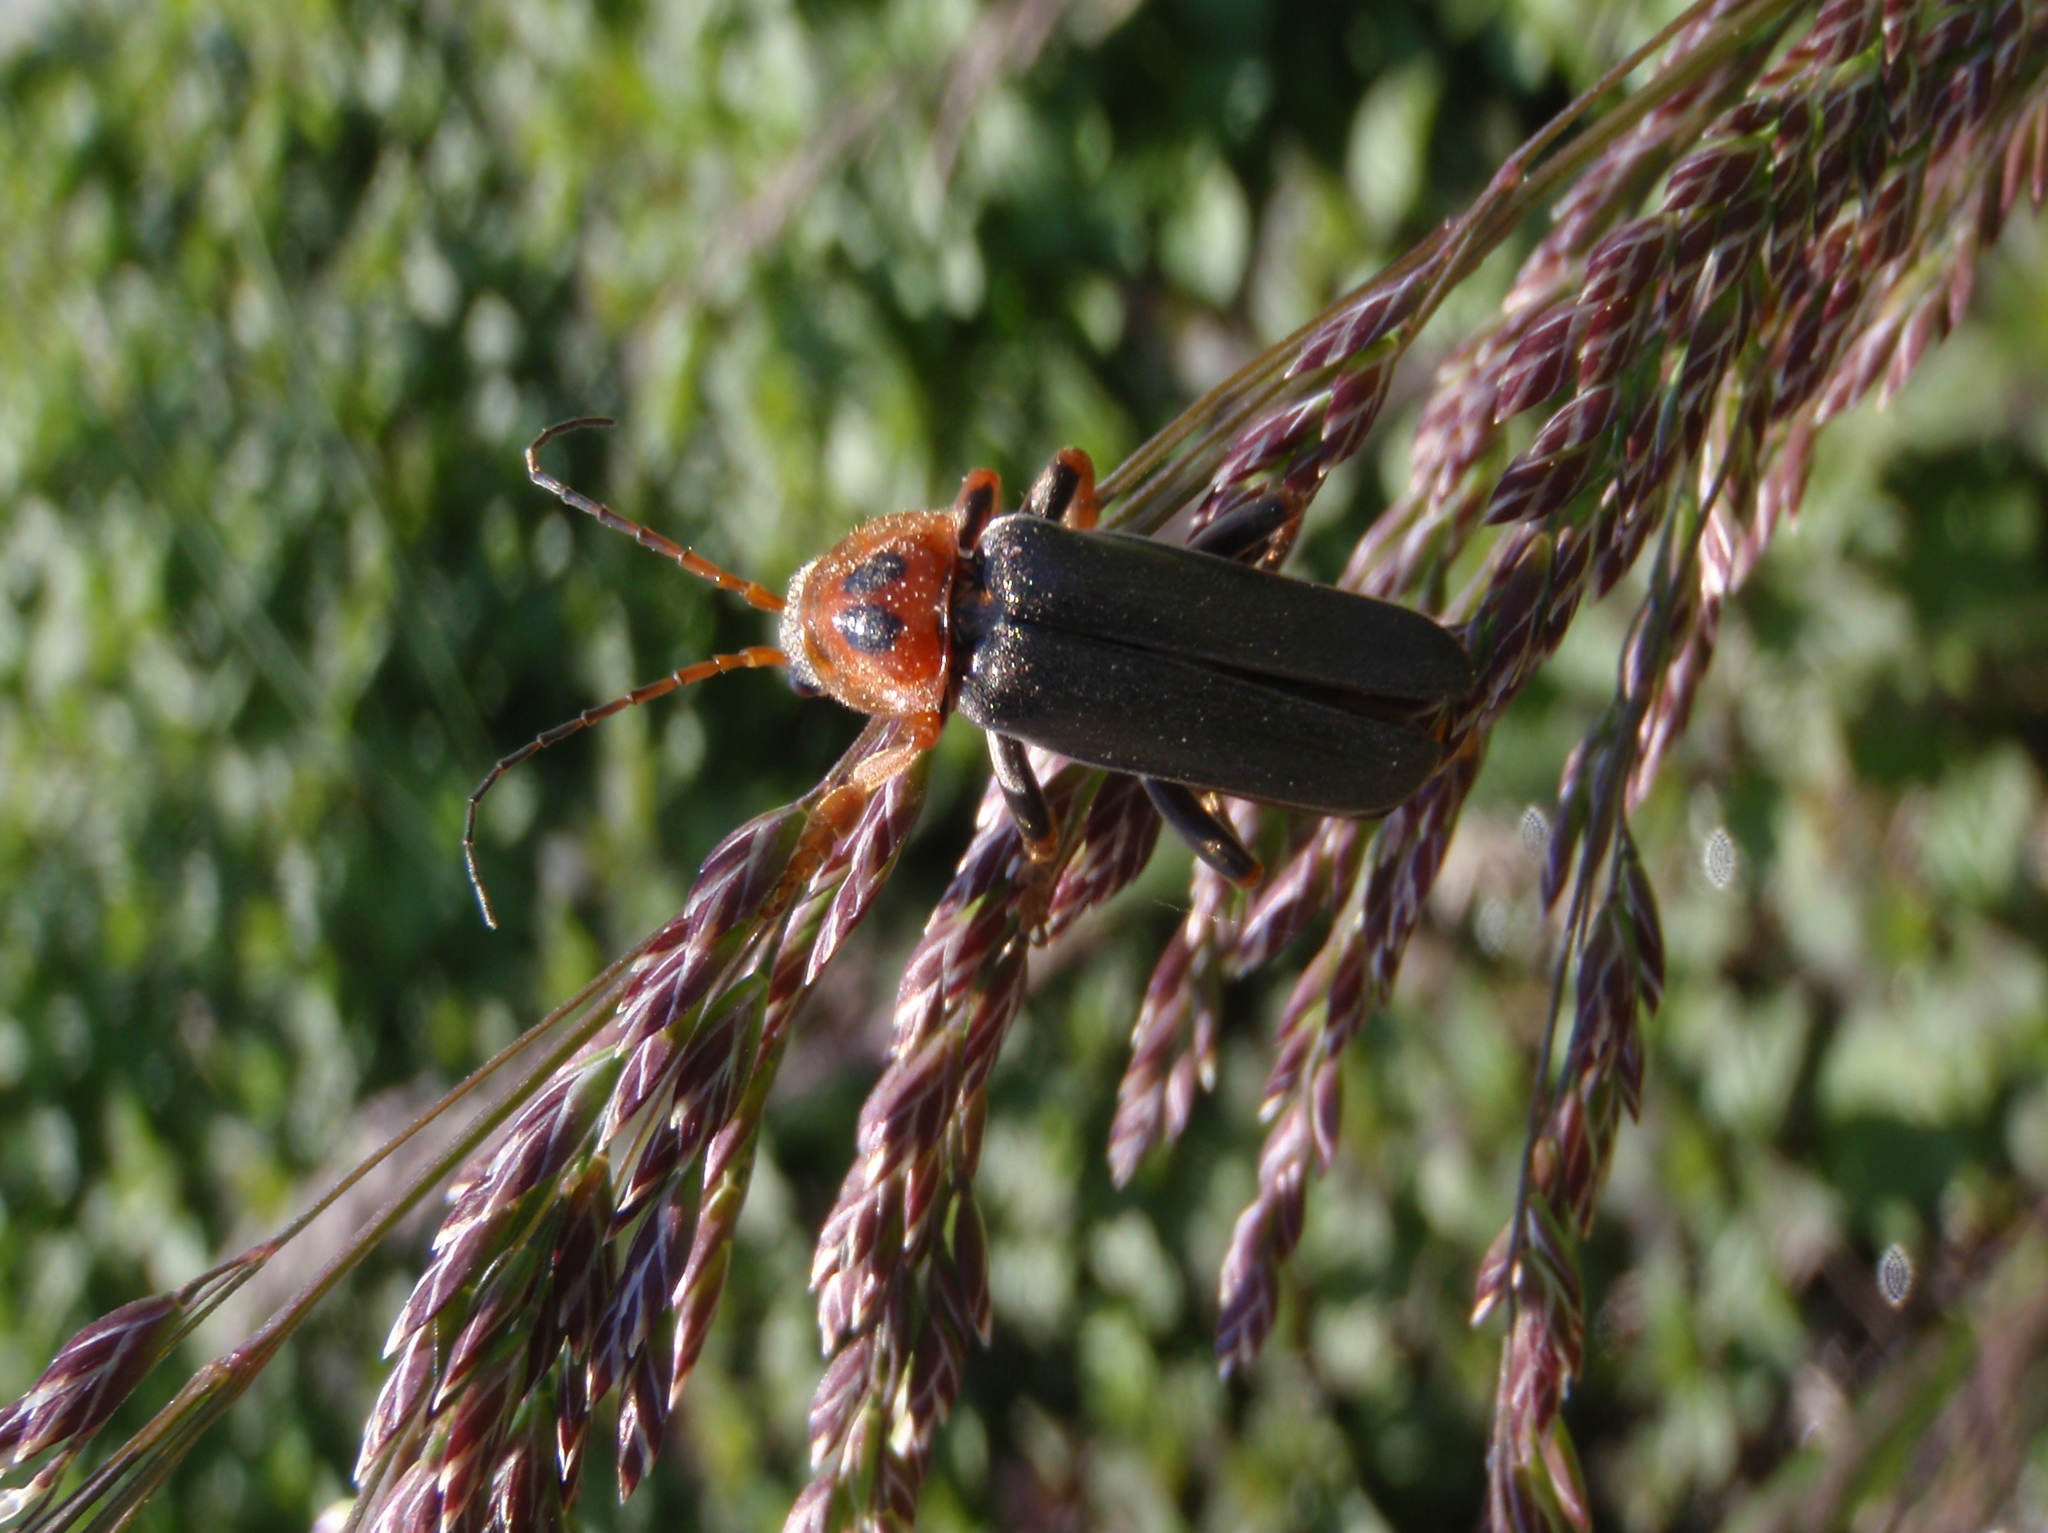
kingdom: Animalia
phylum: Arthropoda
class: Insecta
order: Coleoptera
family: Cantharidae
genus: Cantharis
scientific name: Cantharis annularis
